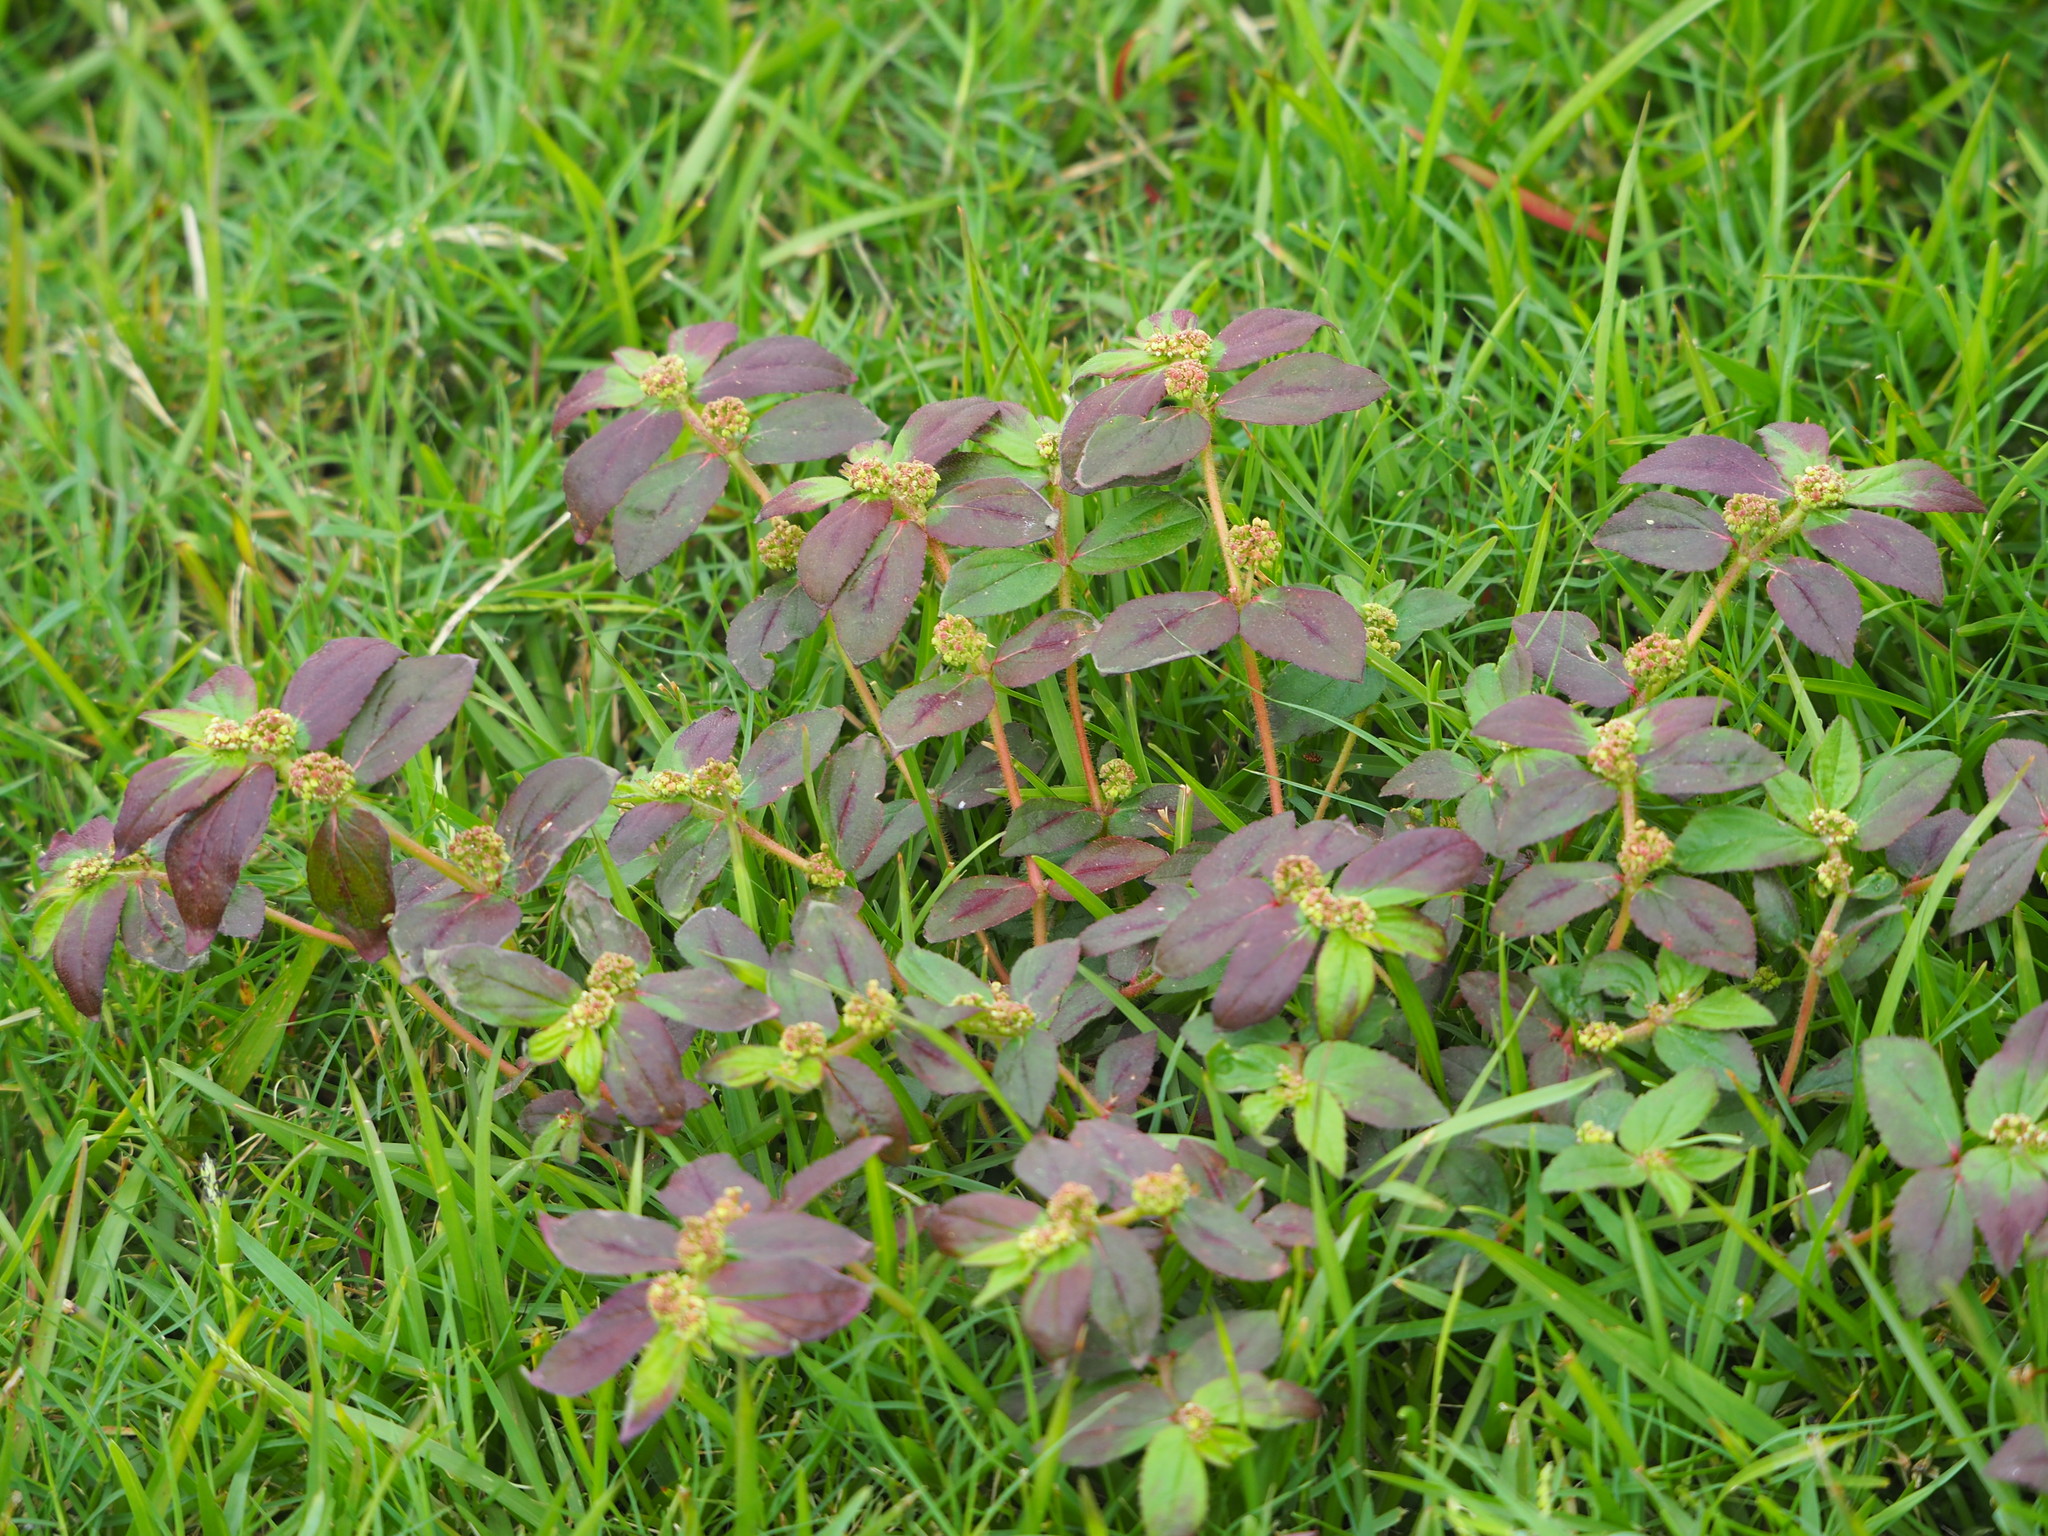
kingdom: Plantae
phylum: Tracheophyta
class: Magnoliopsida
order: Malpighiales
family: Euphorbiaceae
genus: Euphorbia
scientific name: Euphorbia hirta
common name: Pillpod sandmat
